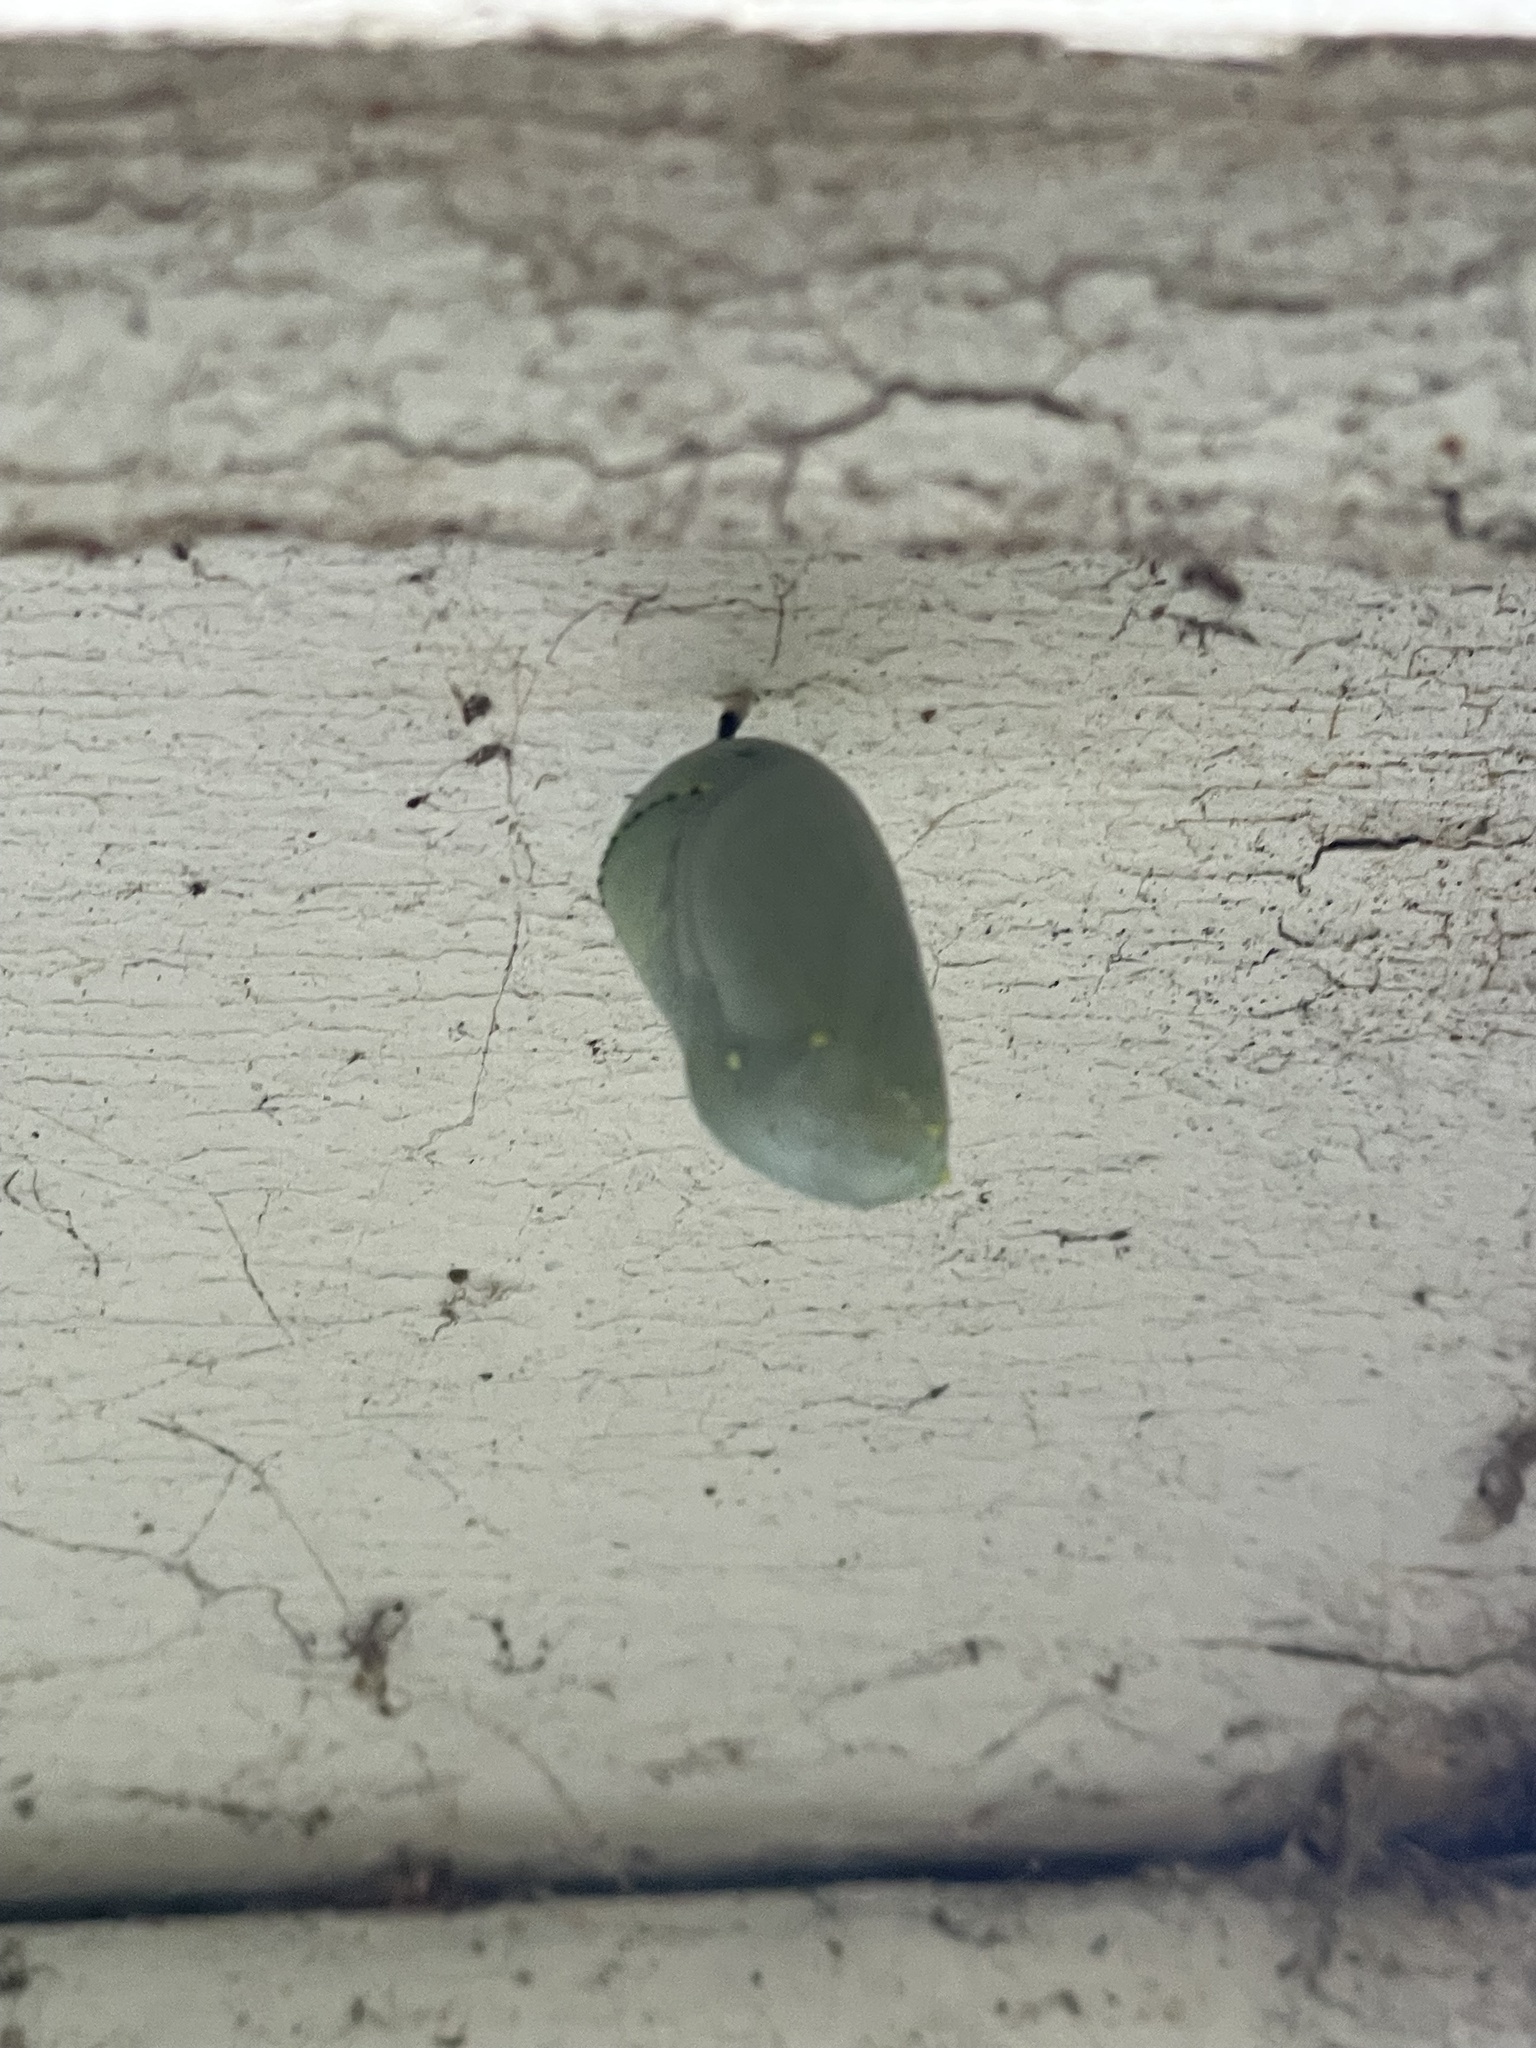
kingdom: Animalia
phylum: Arthropoda
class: Insecta
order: Lepidoptera
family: Nymphalidae
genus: Danaus
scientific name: Danaus plexippus
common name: Monarch
